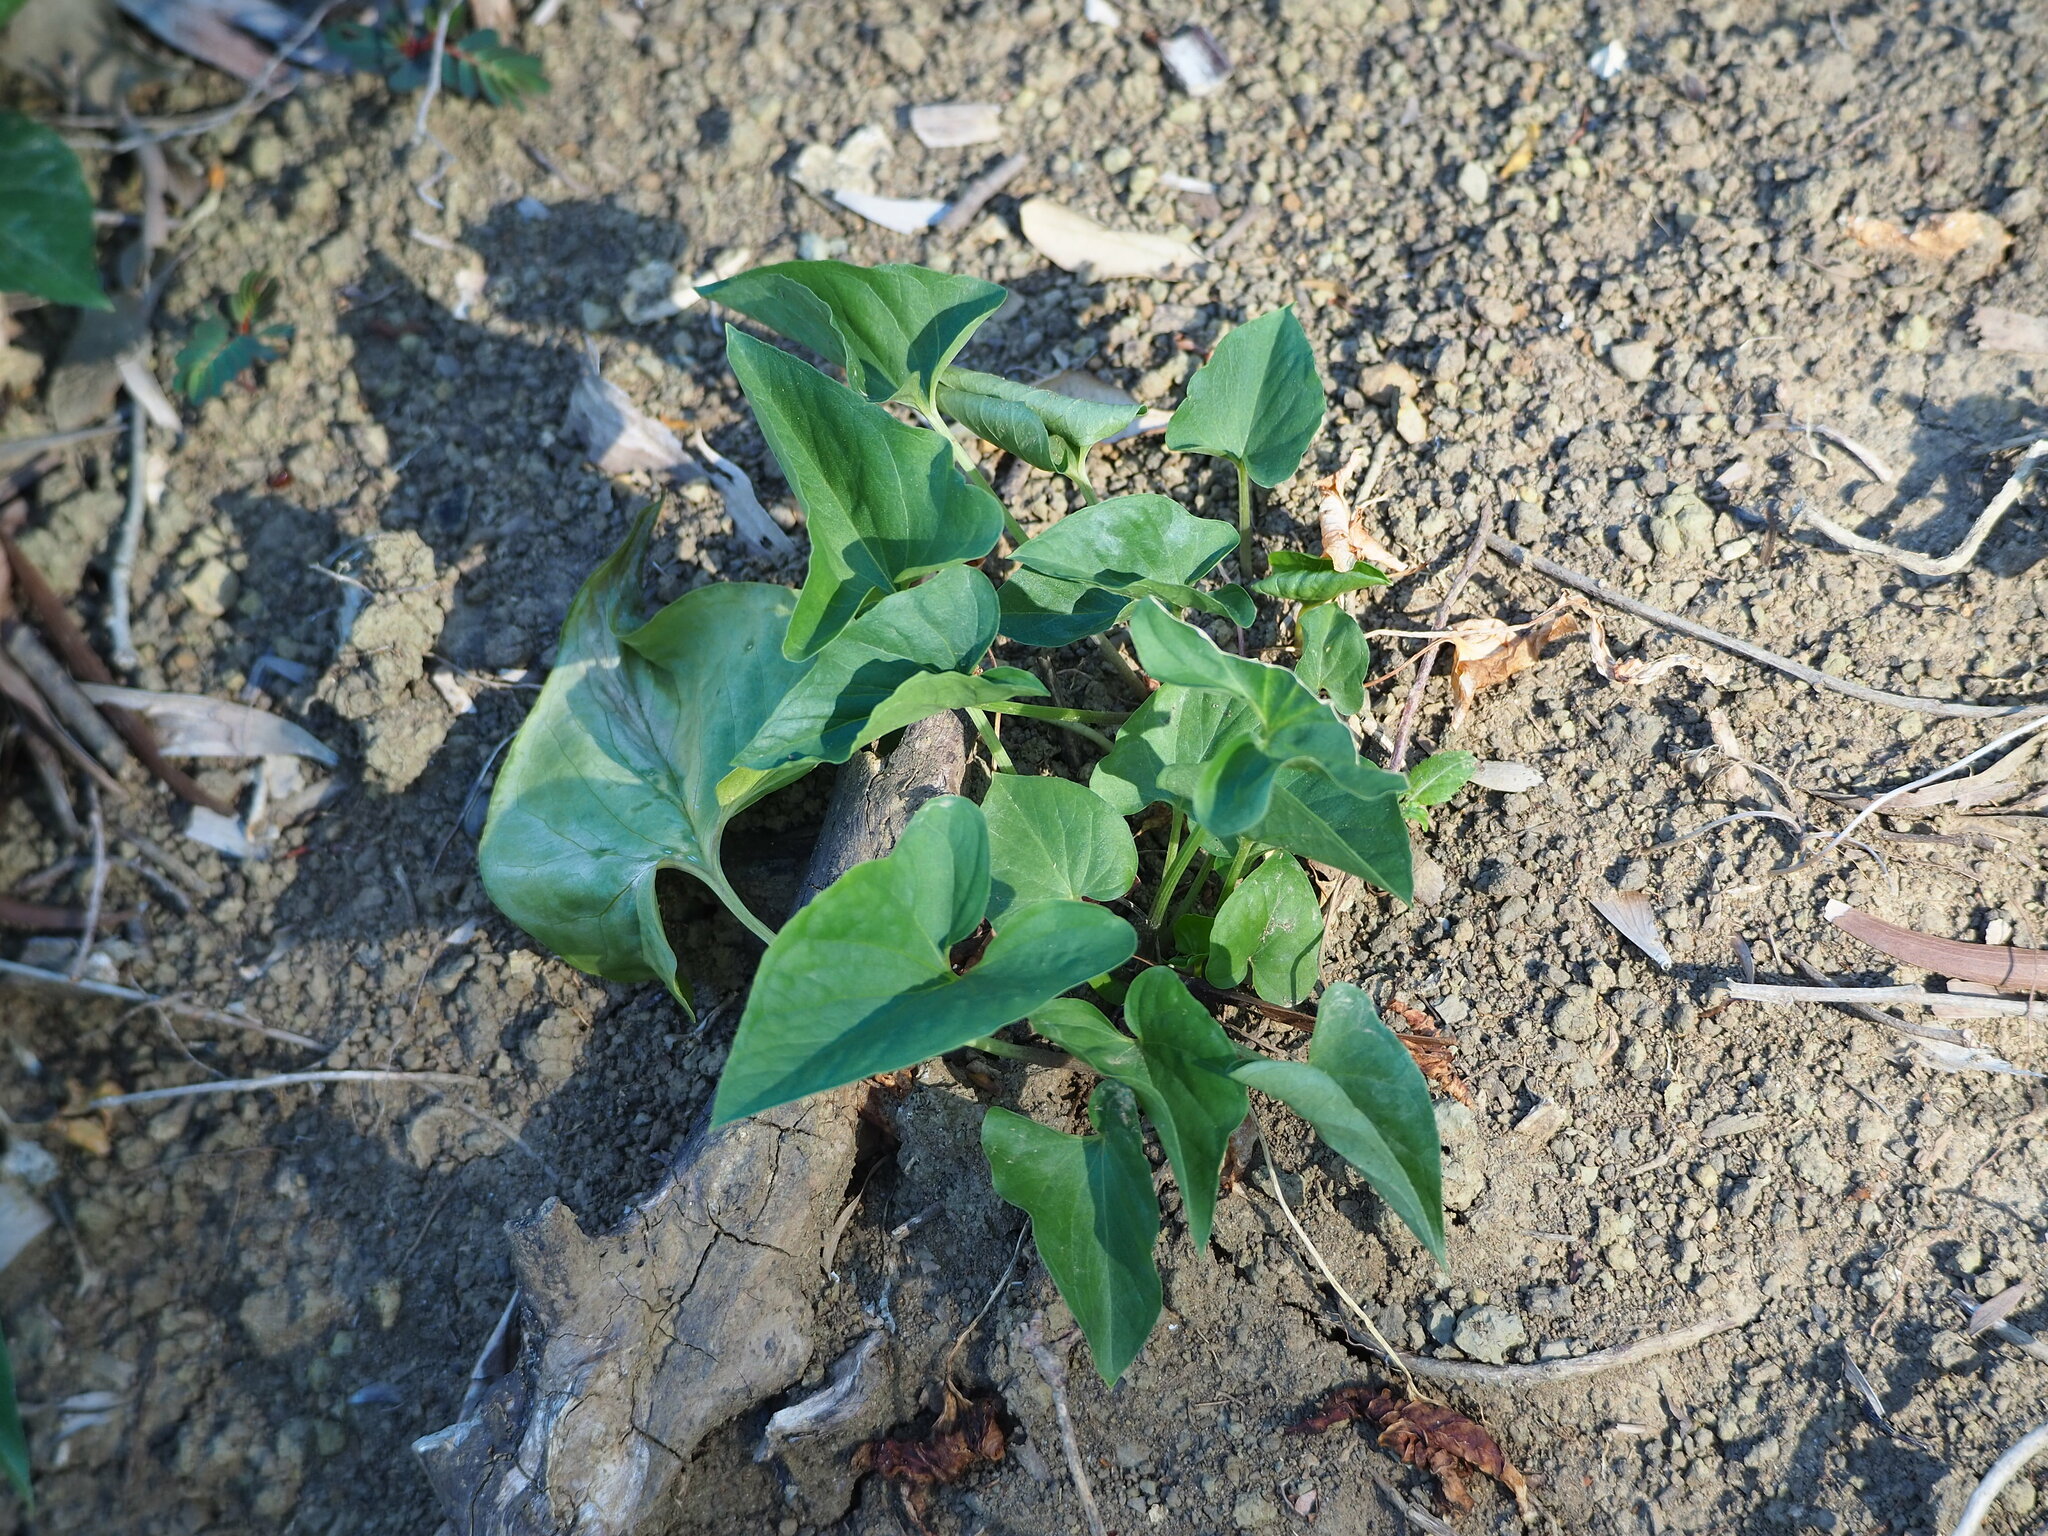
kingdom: Plantae
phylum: Tracheophyta
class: Liliopsida
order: Alismatales
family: Araceae
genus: Typhonium
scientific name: Typhonium blumei
